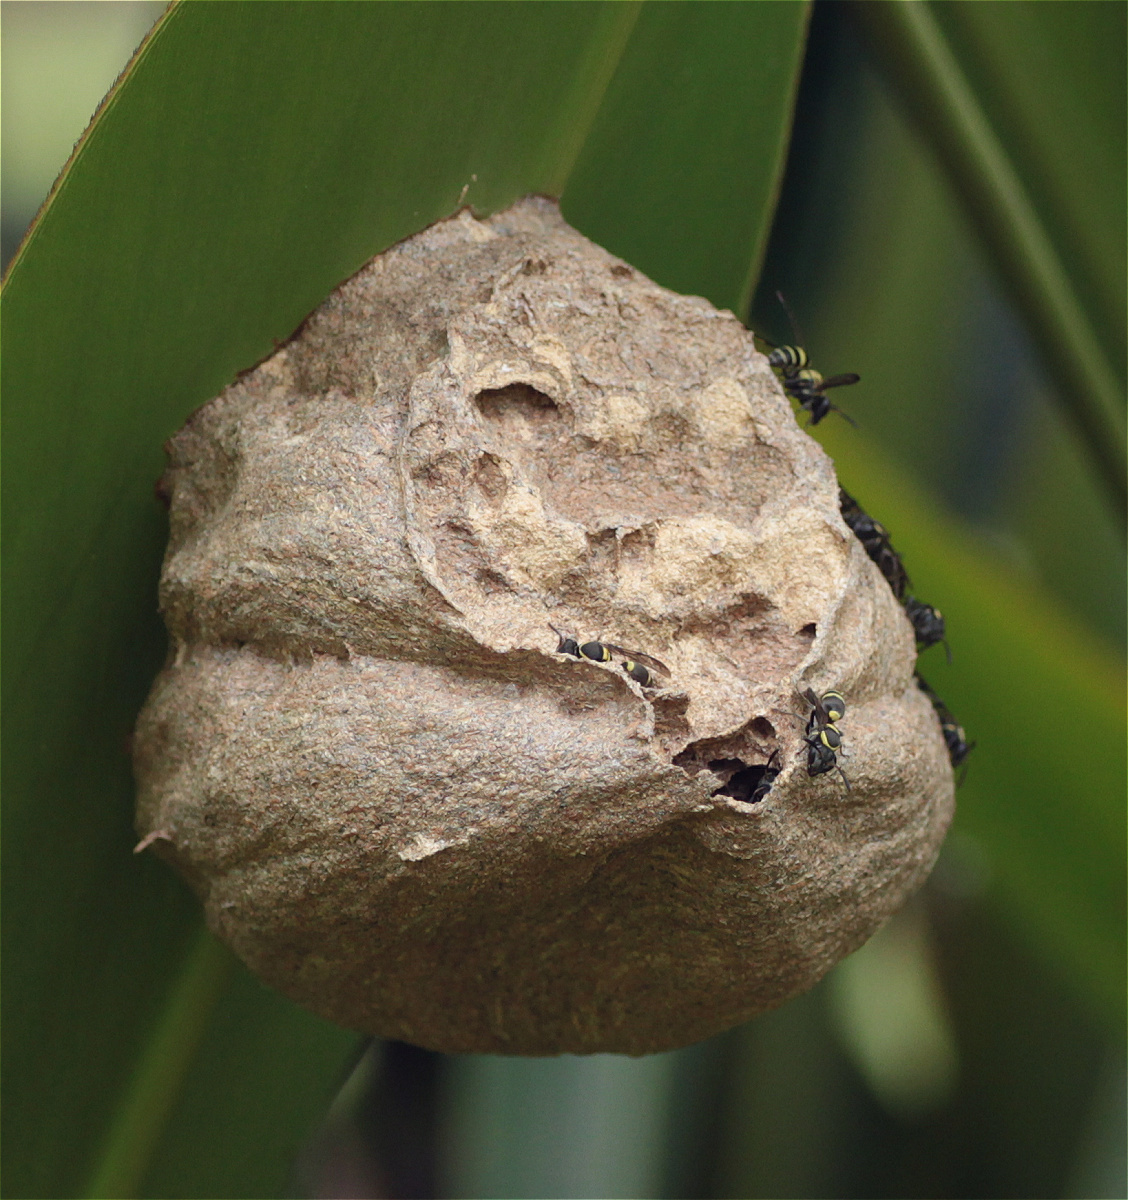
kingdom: Animalia
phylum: Arthropoda
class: Insecta
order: Hymenoptera
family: Eumenidae
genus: Polybia
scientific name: Polybia occidentalis
